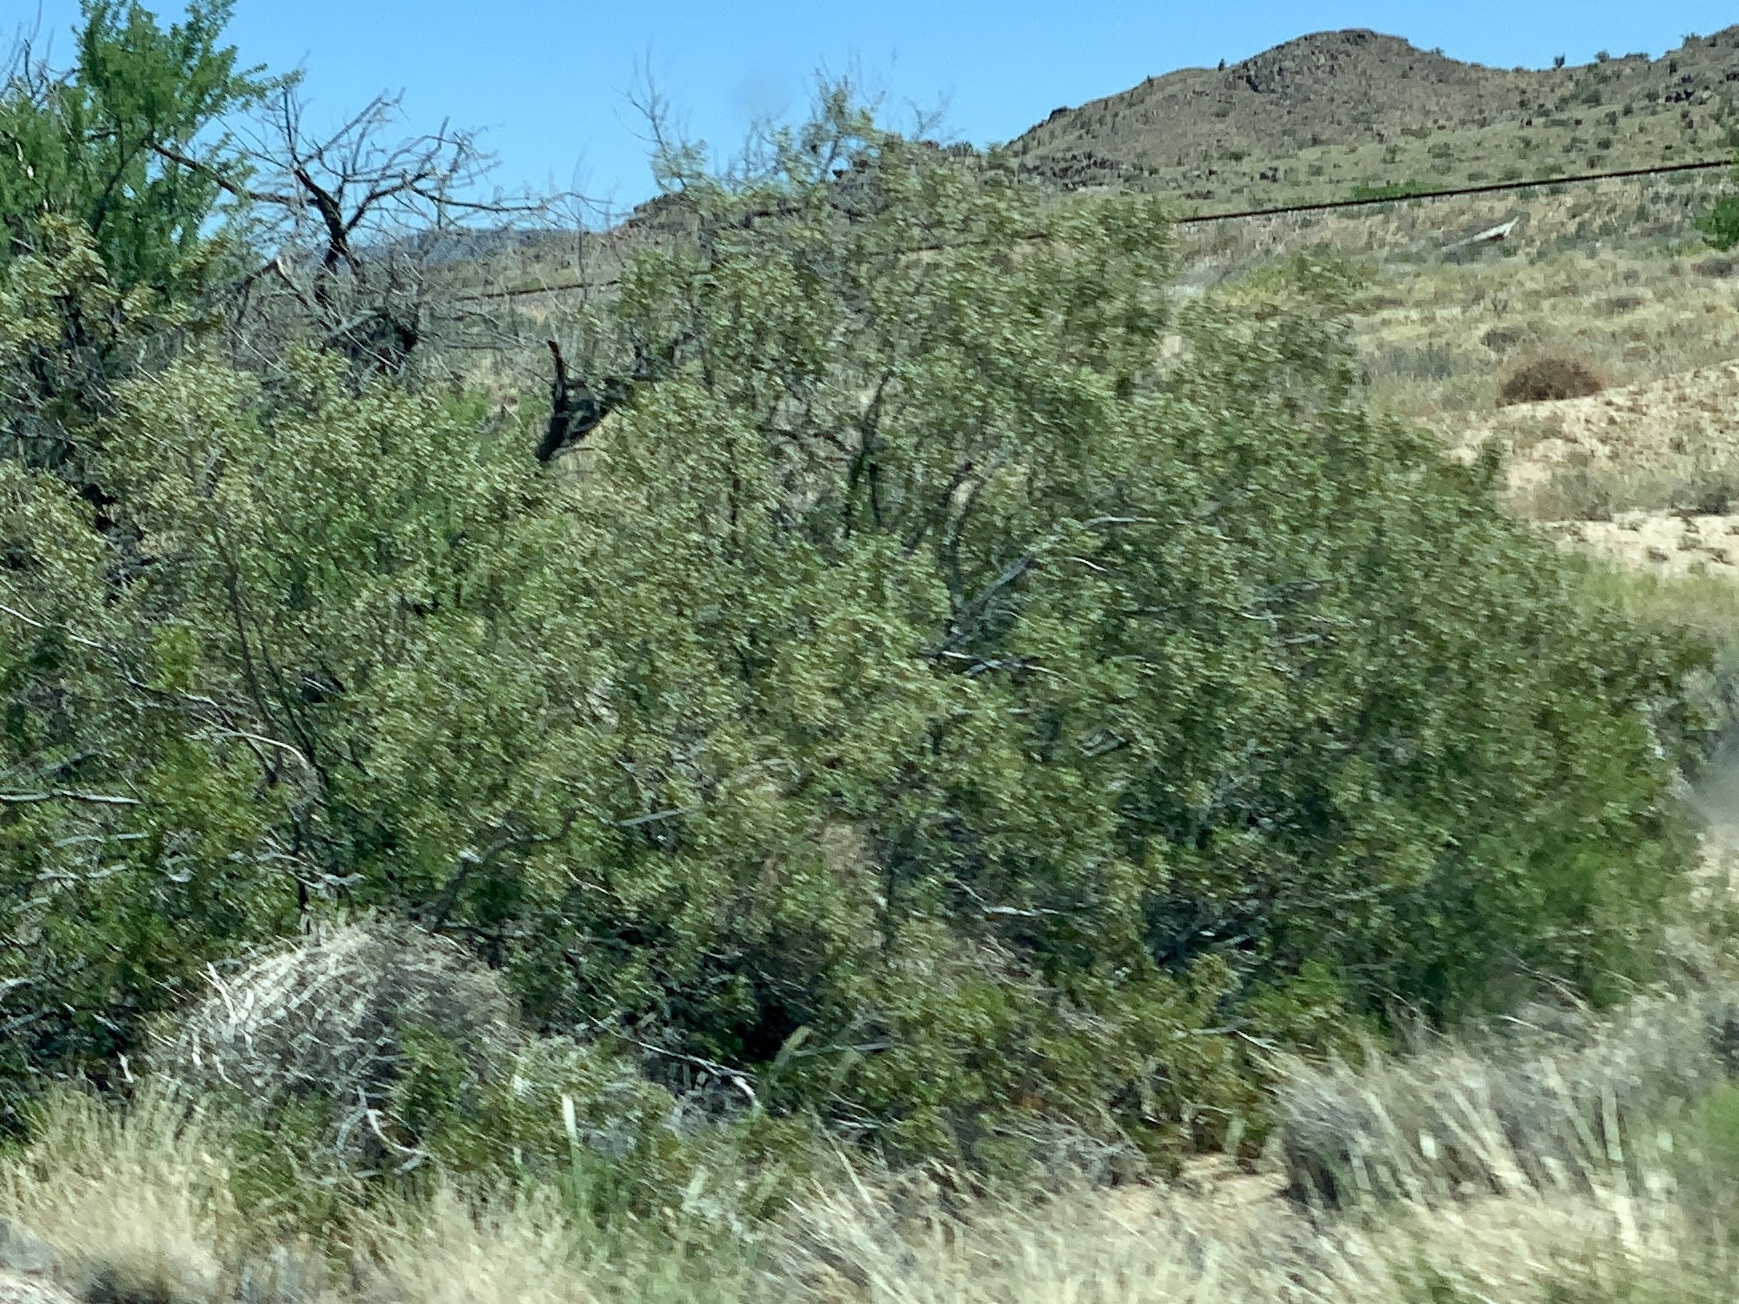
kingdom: Plantae
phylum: Tracheophyta
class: Magnoliopsida
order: Zygophyllales
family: Zygophyllaceae
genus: Larrea
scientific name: Larrea tridentata
